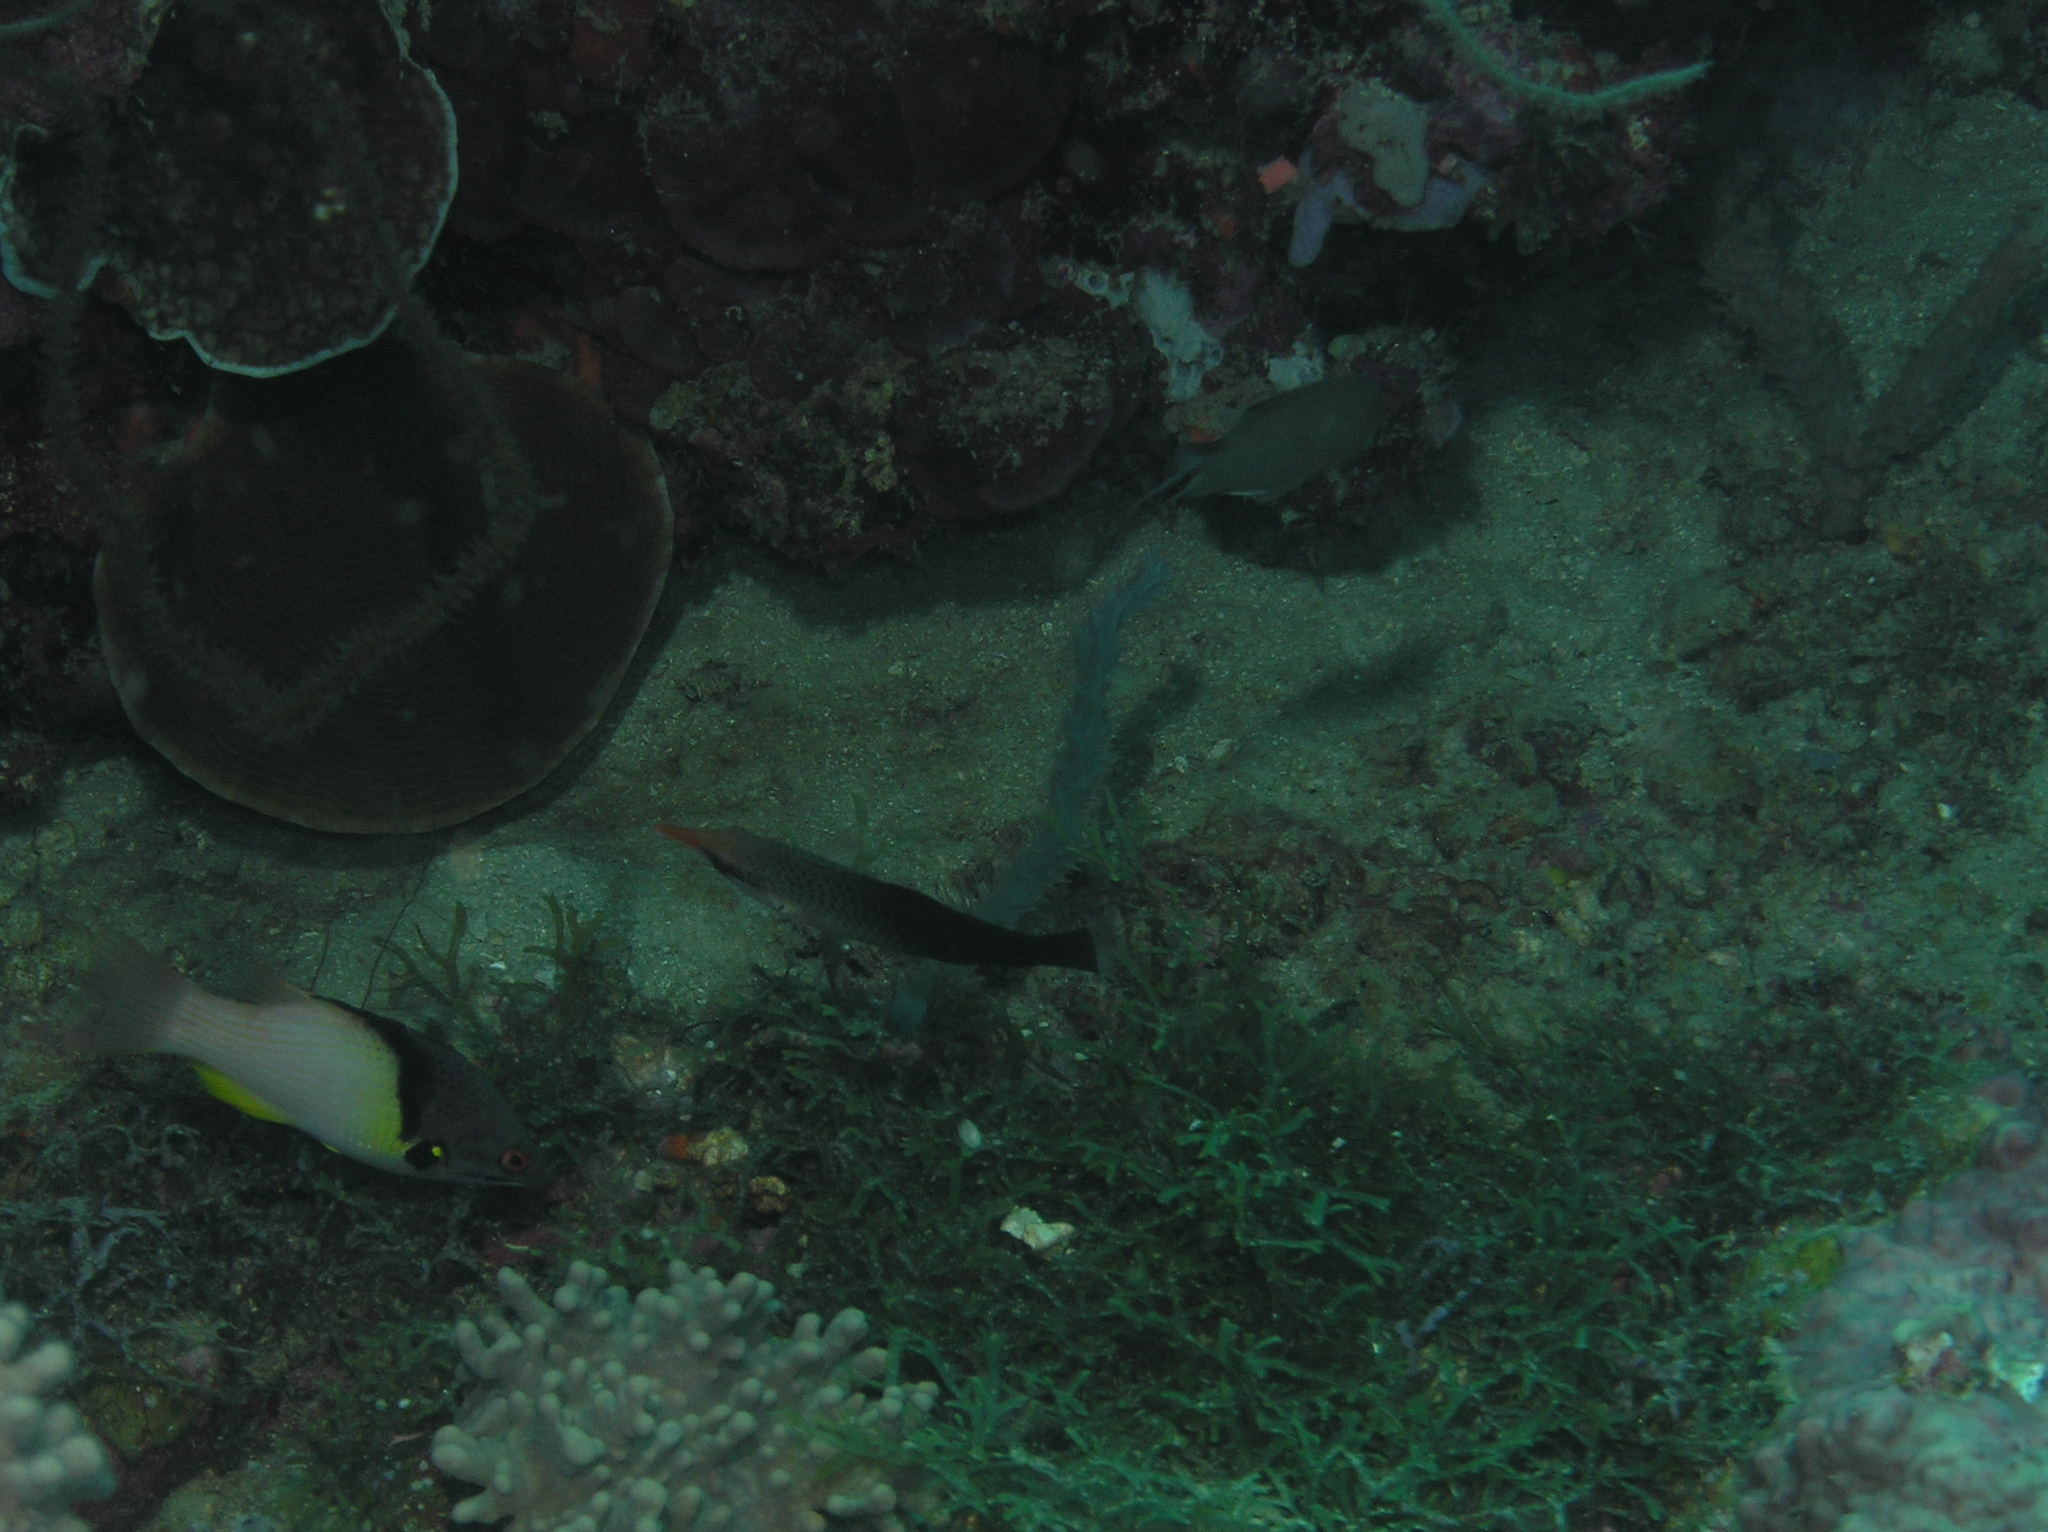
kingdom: Animalia
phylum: Chordata
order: Perciformes
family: Labridae
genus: Bodianus
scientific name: Bodianus mesothorax
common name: Coral hogfish
